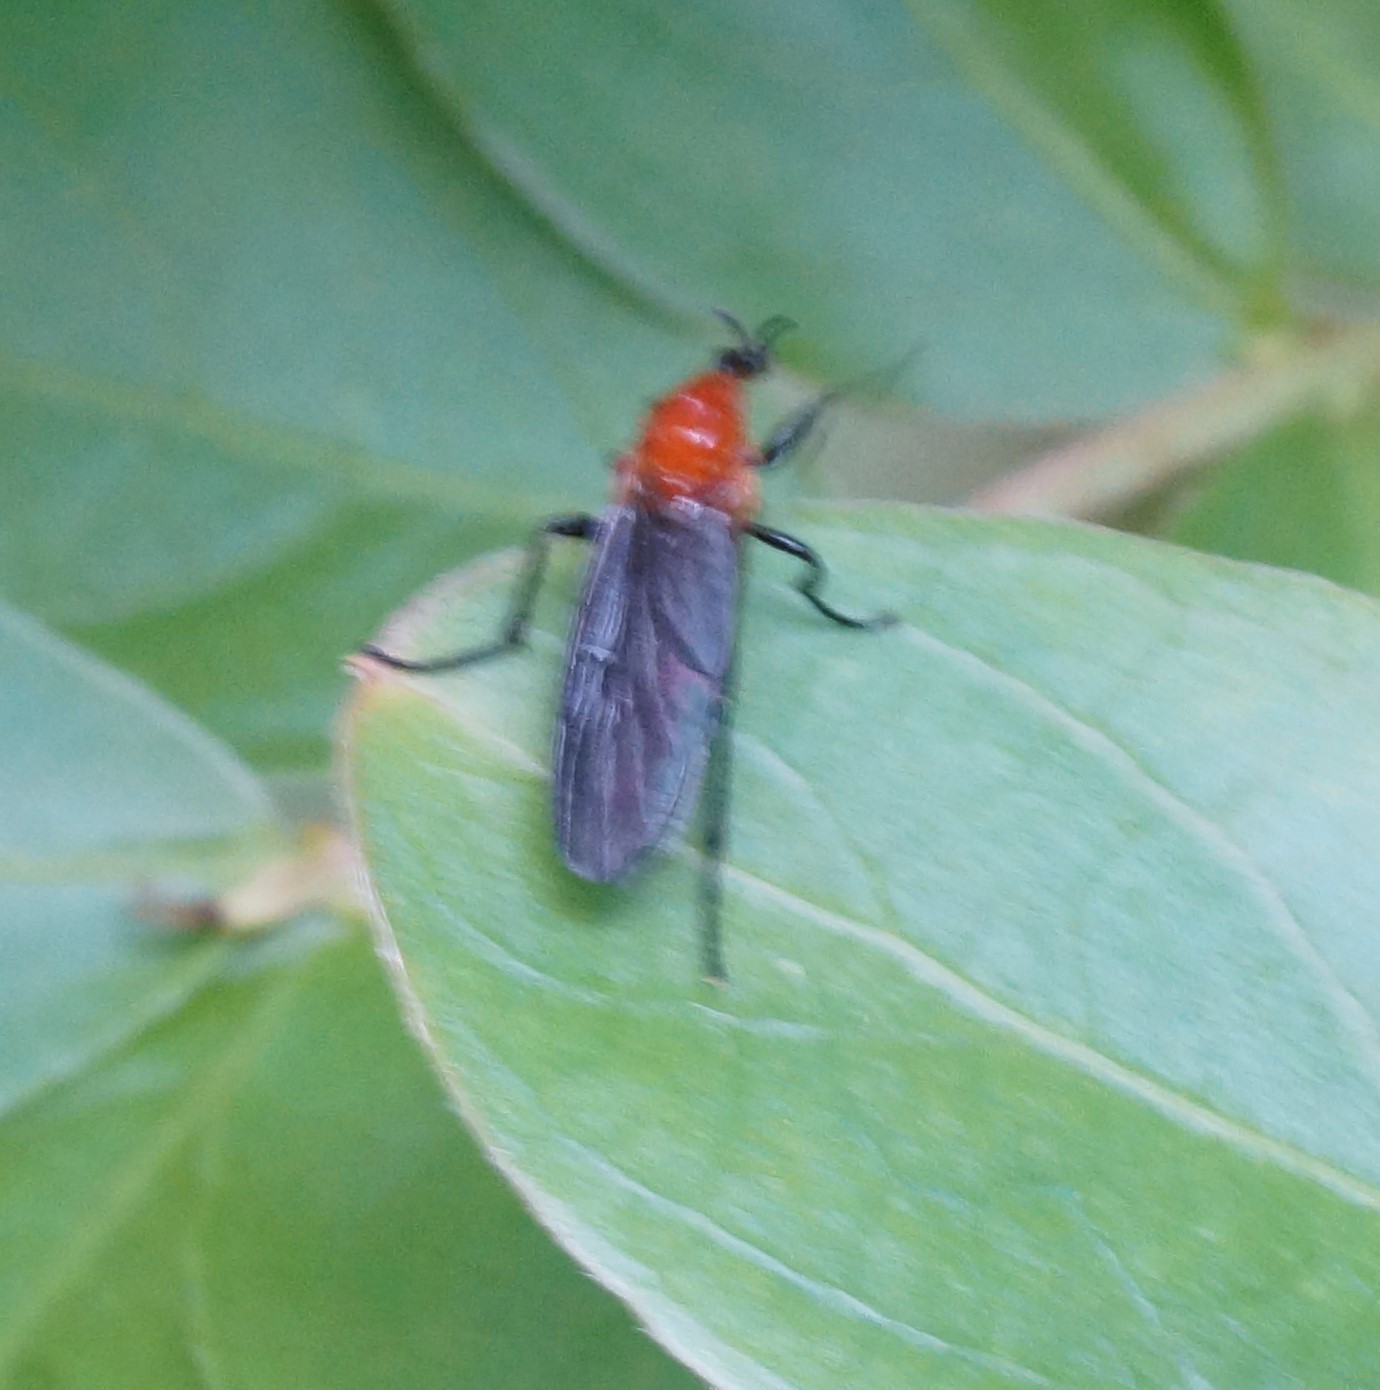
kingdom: Animalia
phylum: Arthropoda
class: Insecta
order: Diptera
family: Bibionidae
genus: Bibio
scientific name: Bibio imitator
